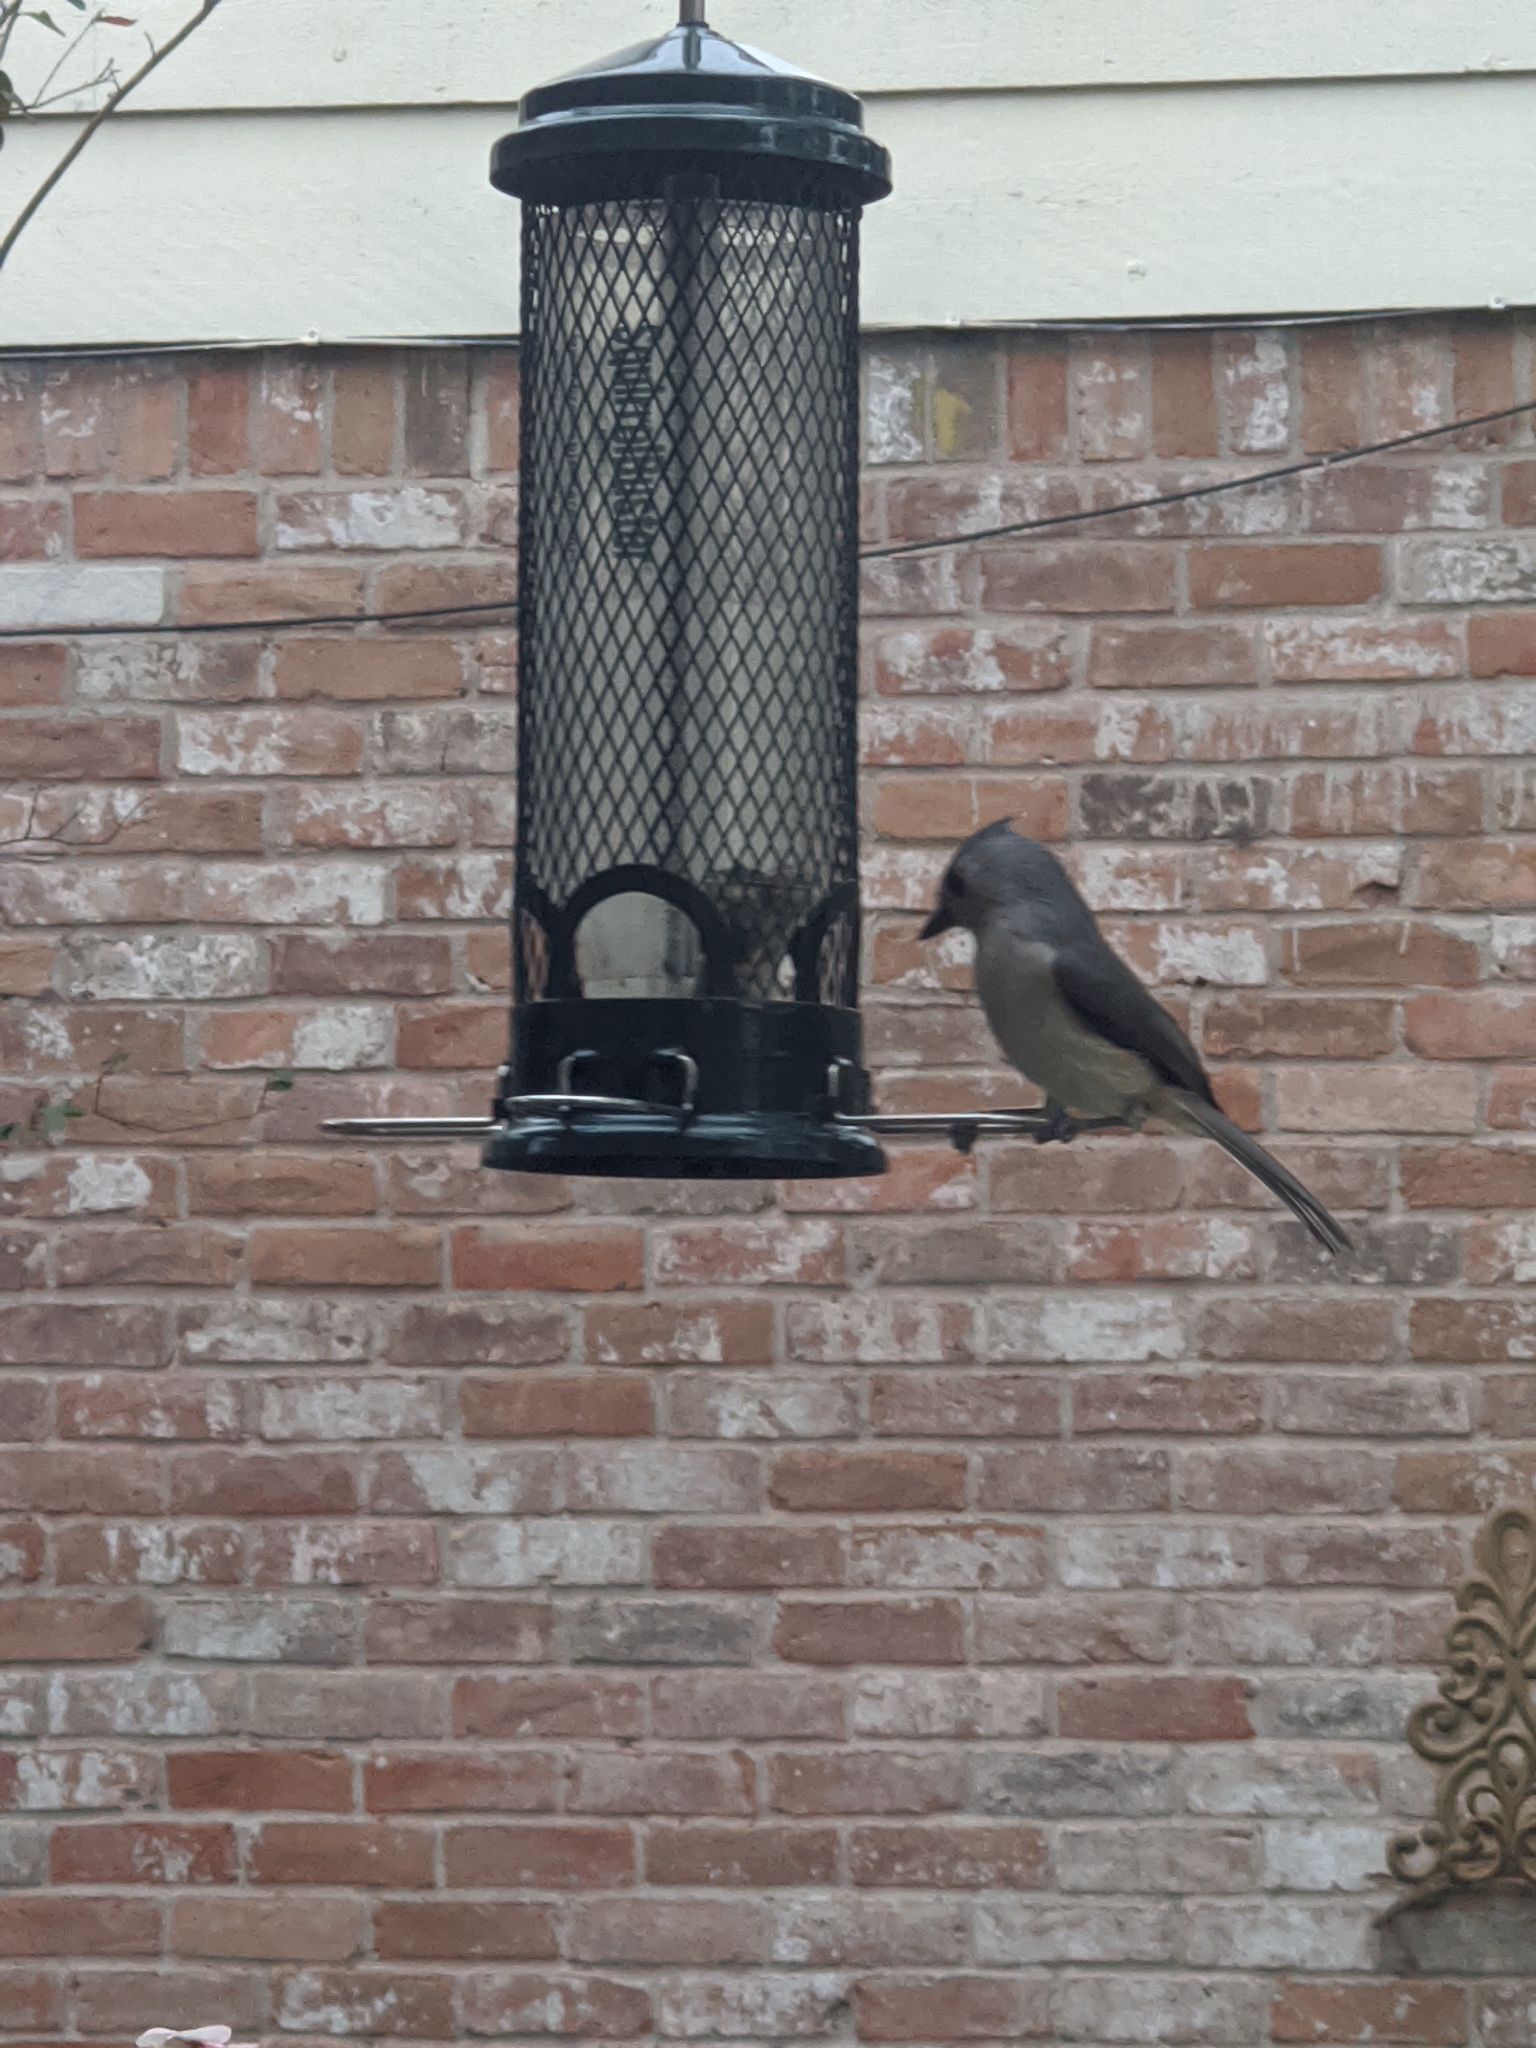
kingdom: Animalia
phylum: Chordata
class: Aves
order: Passeriformes
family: Paridae
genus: Baeolophus
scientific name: Baeolophus bicolor
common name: Tufted titmouse
